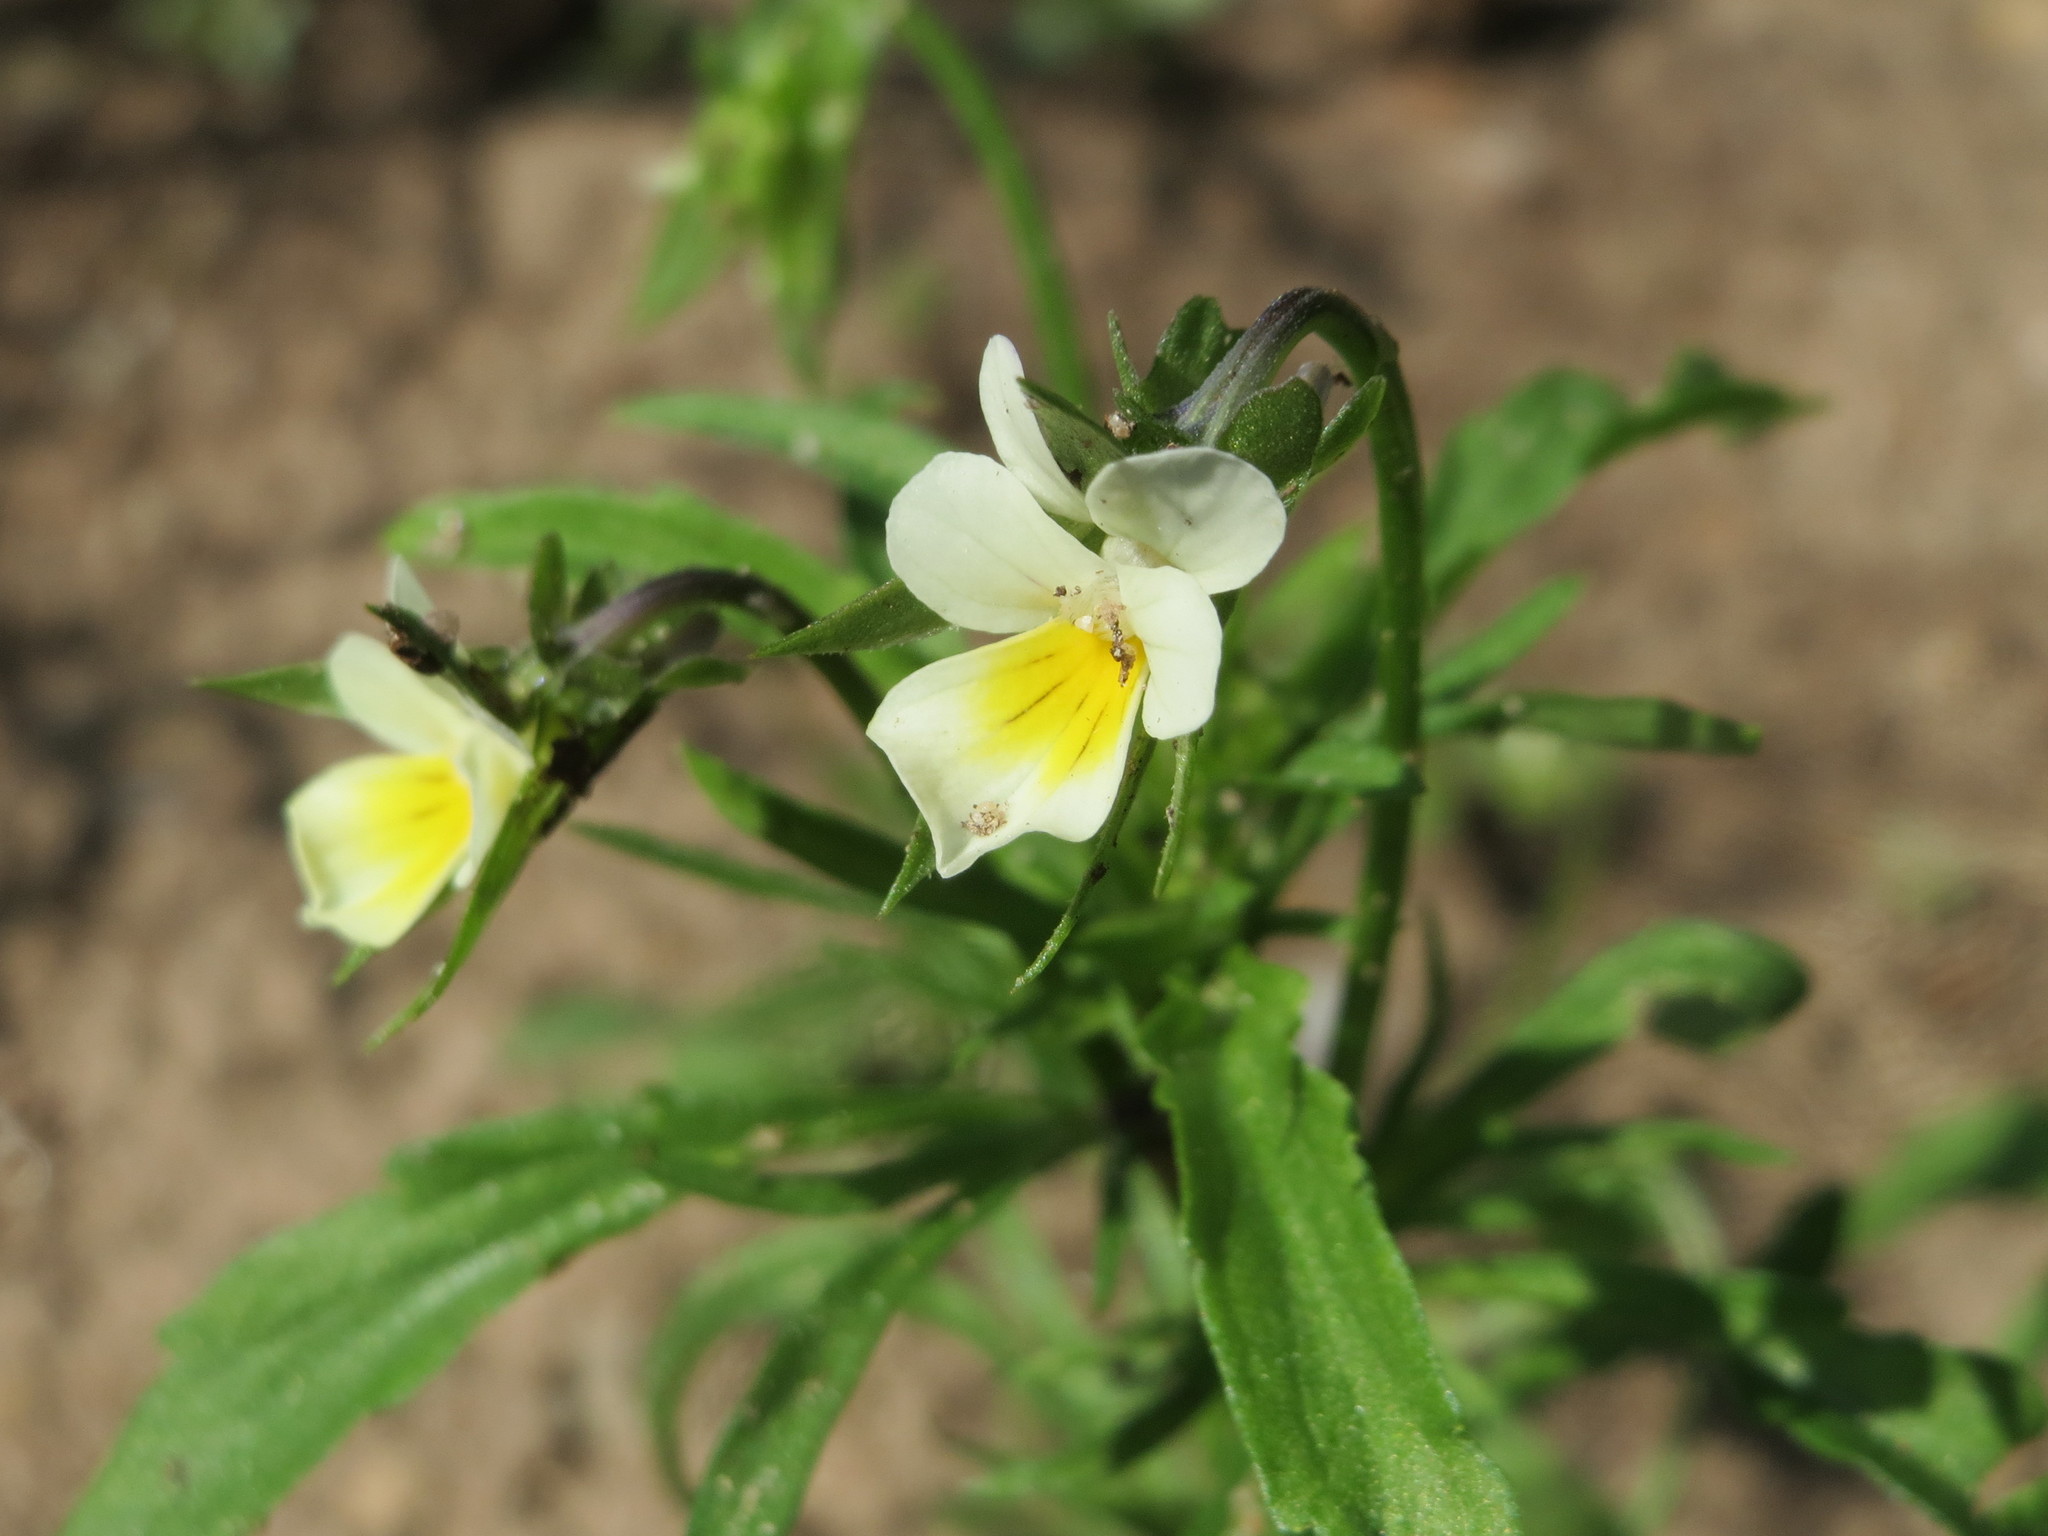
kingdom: Plantae
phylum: Tracheophyta
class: Magnoliopsida
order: Malpighiales
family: Violaceae
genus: Viola
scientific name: Viola arvensis
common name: Field pansy
